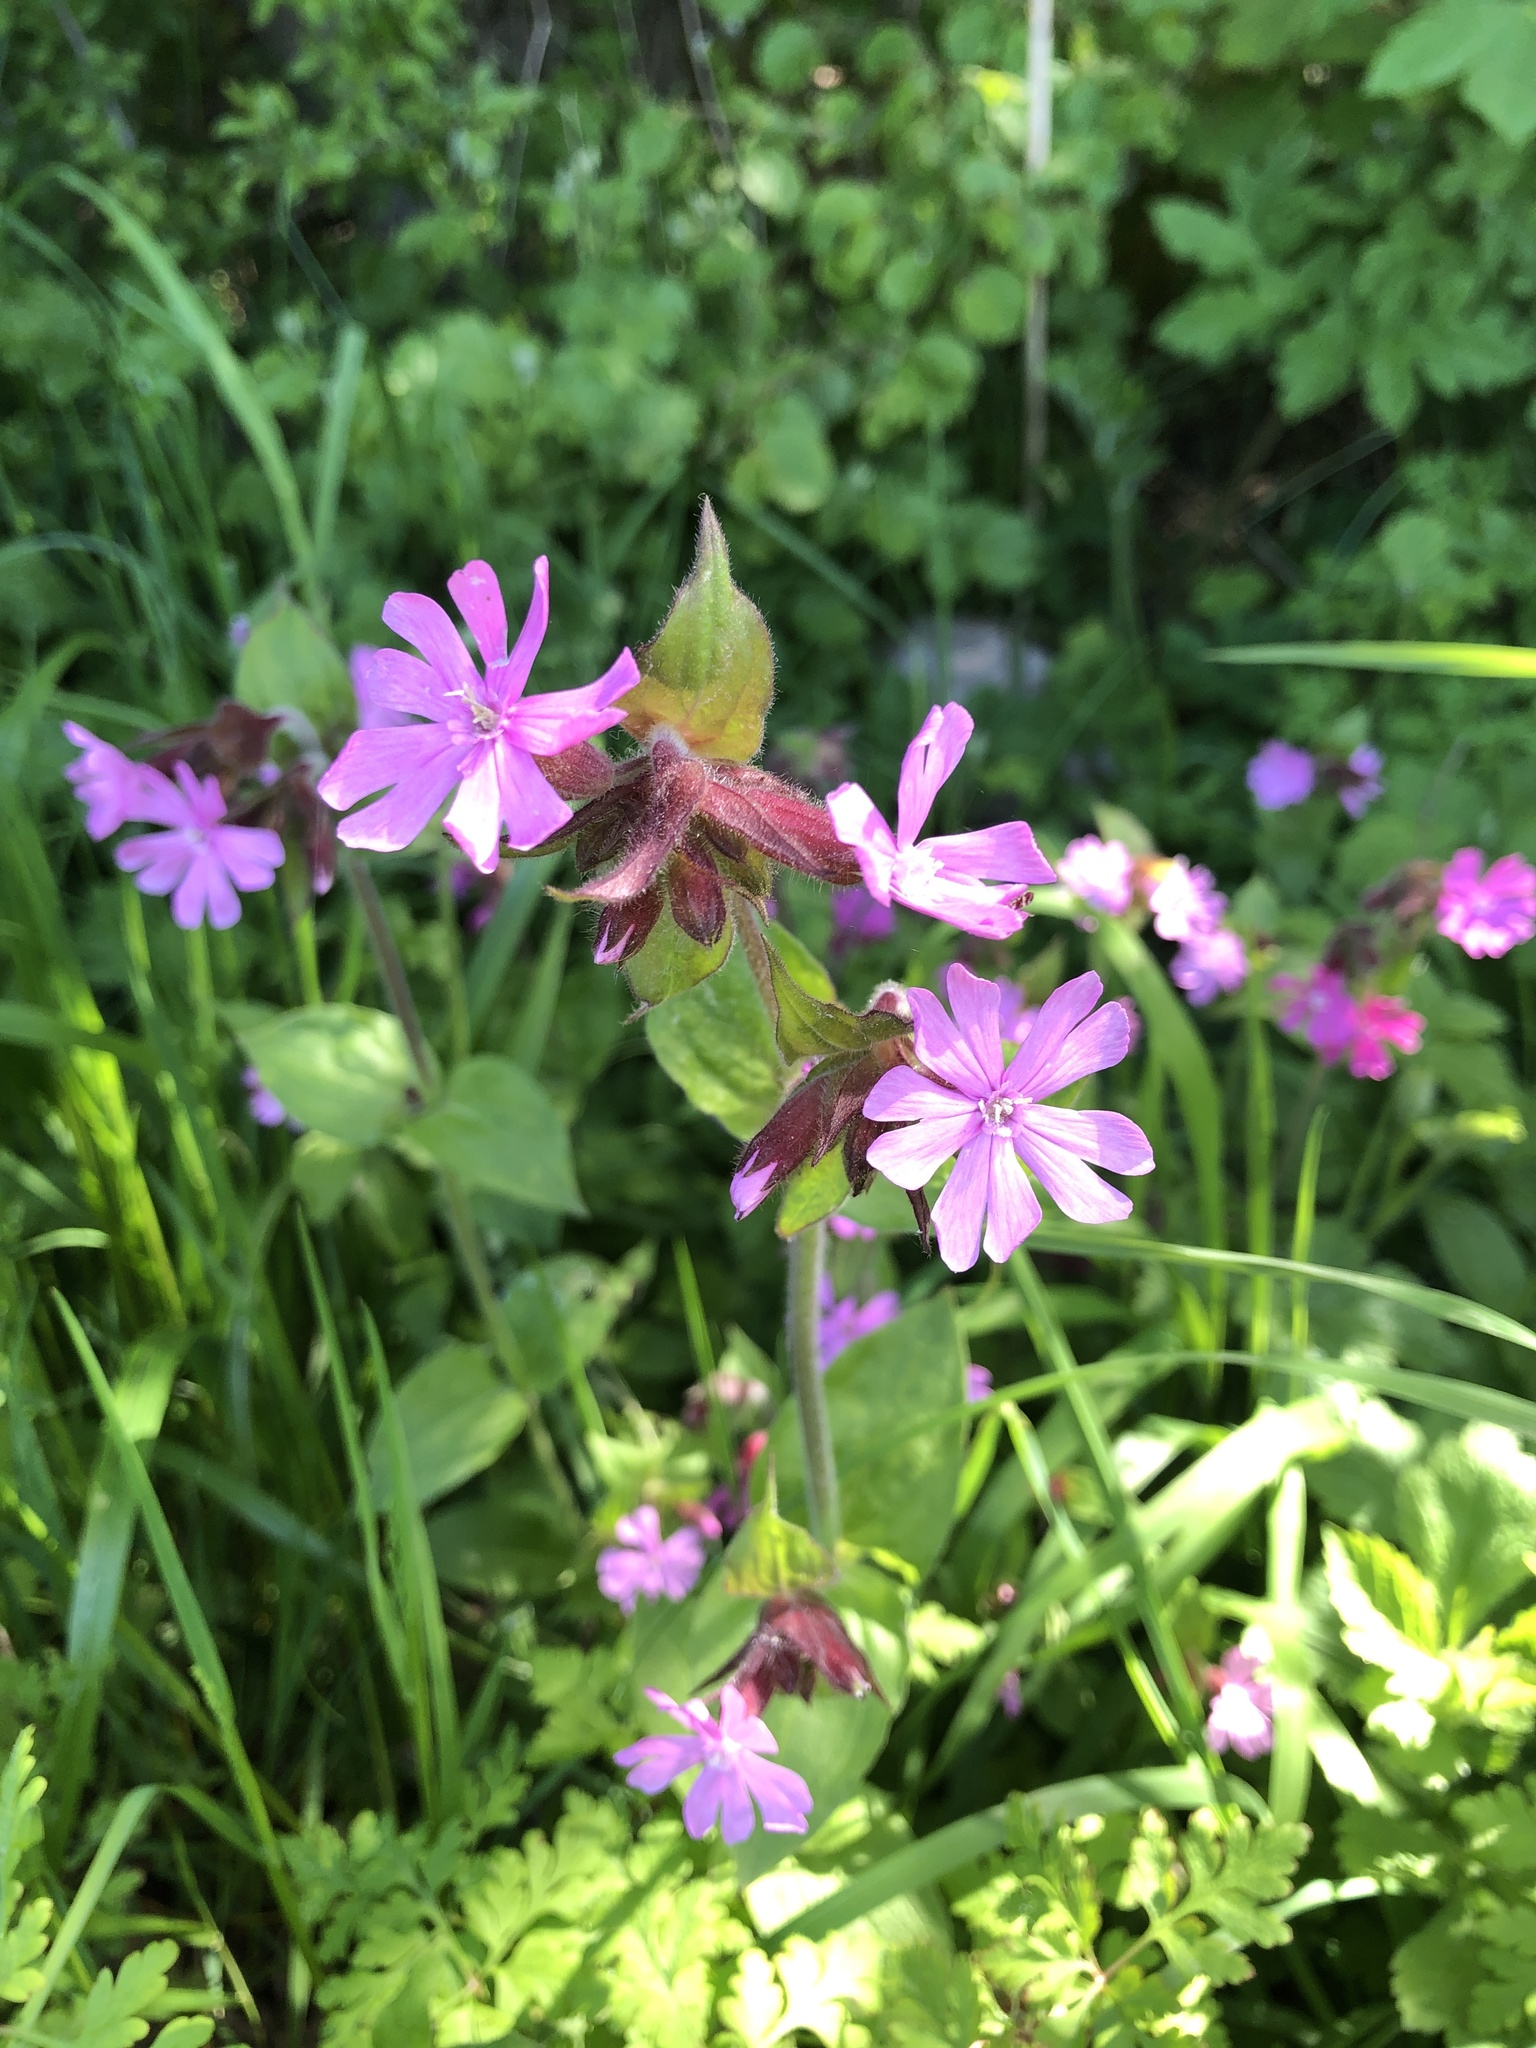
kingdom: Plantae
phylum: Tracheophyta
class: Magnoliopsida
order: Caryophyllales
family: Caryophyllaceae
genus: Silene
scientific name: Silene dioica
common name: Red campion
